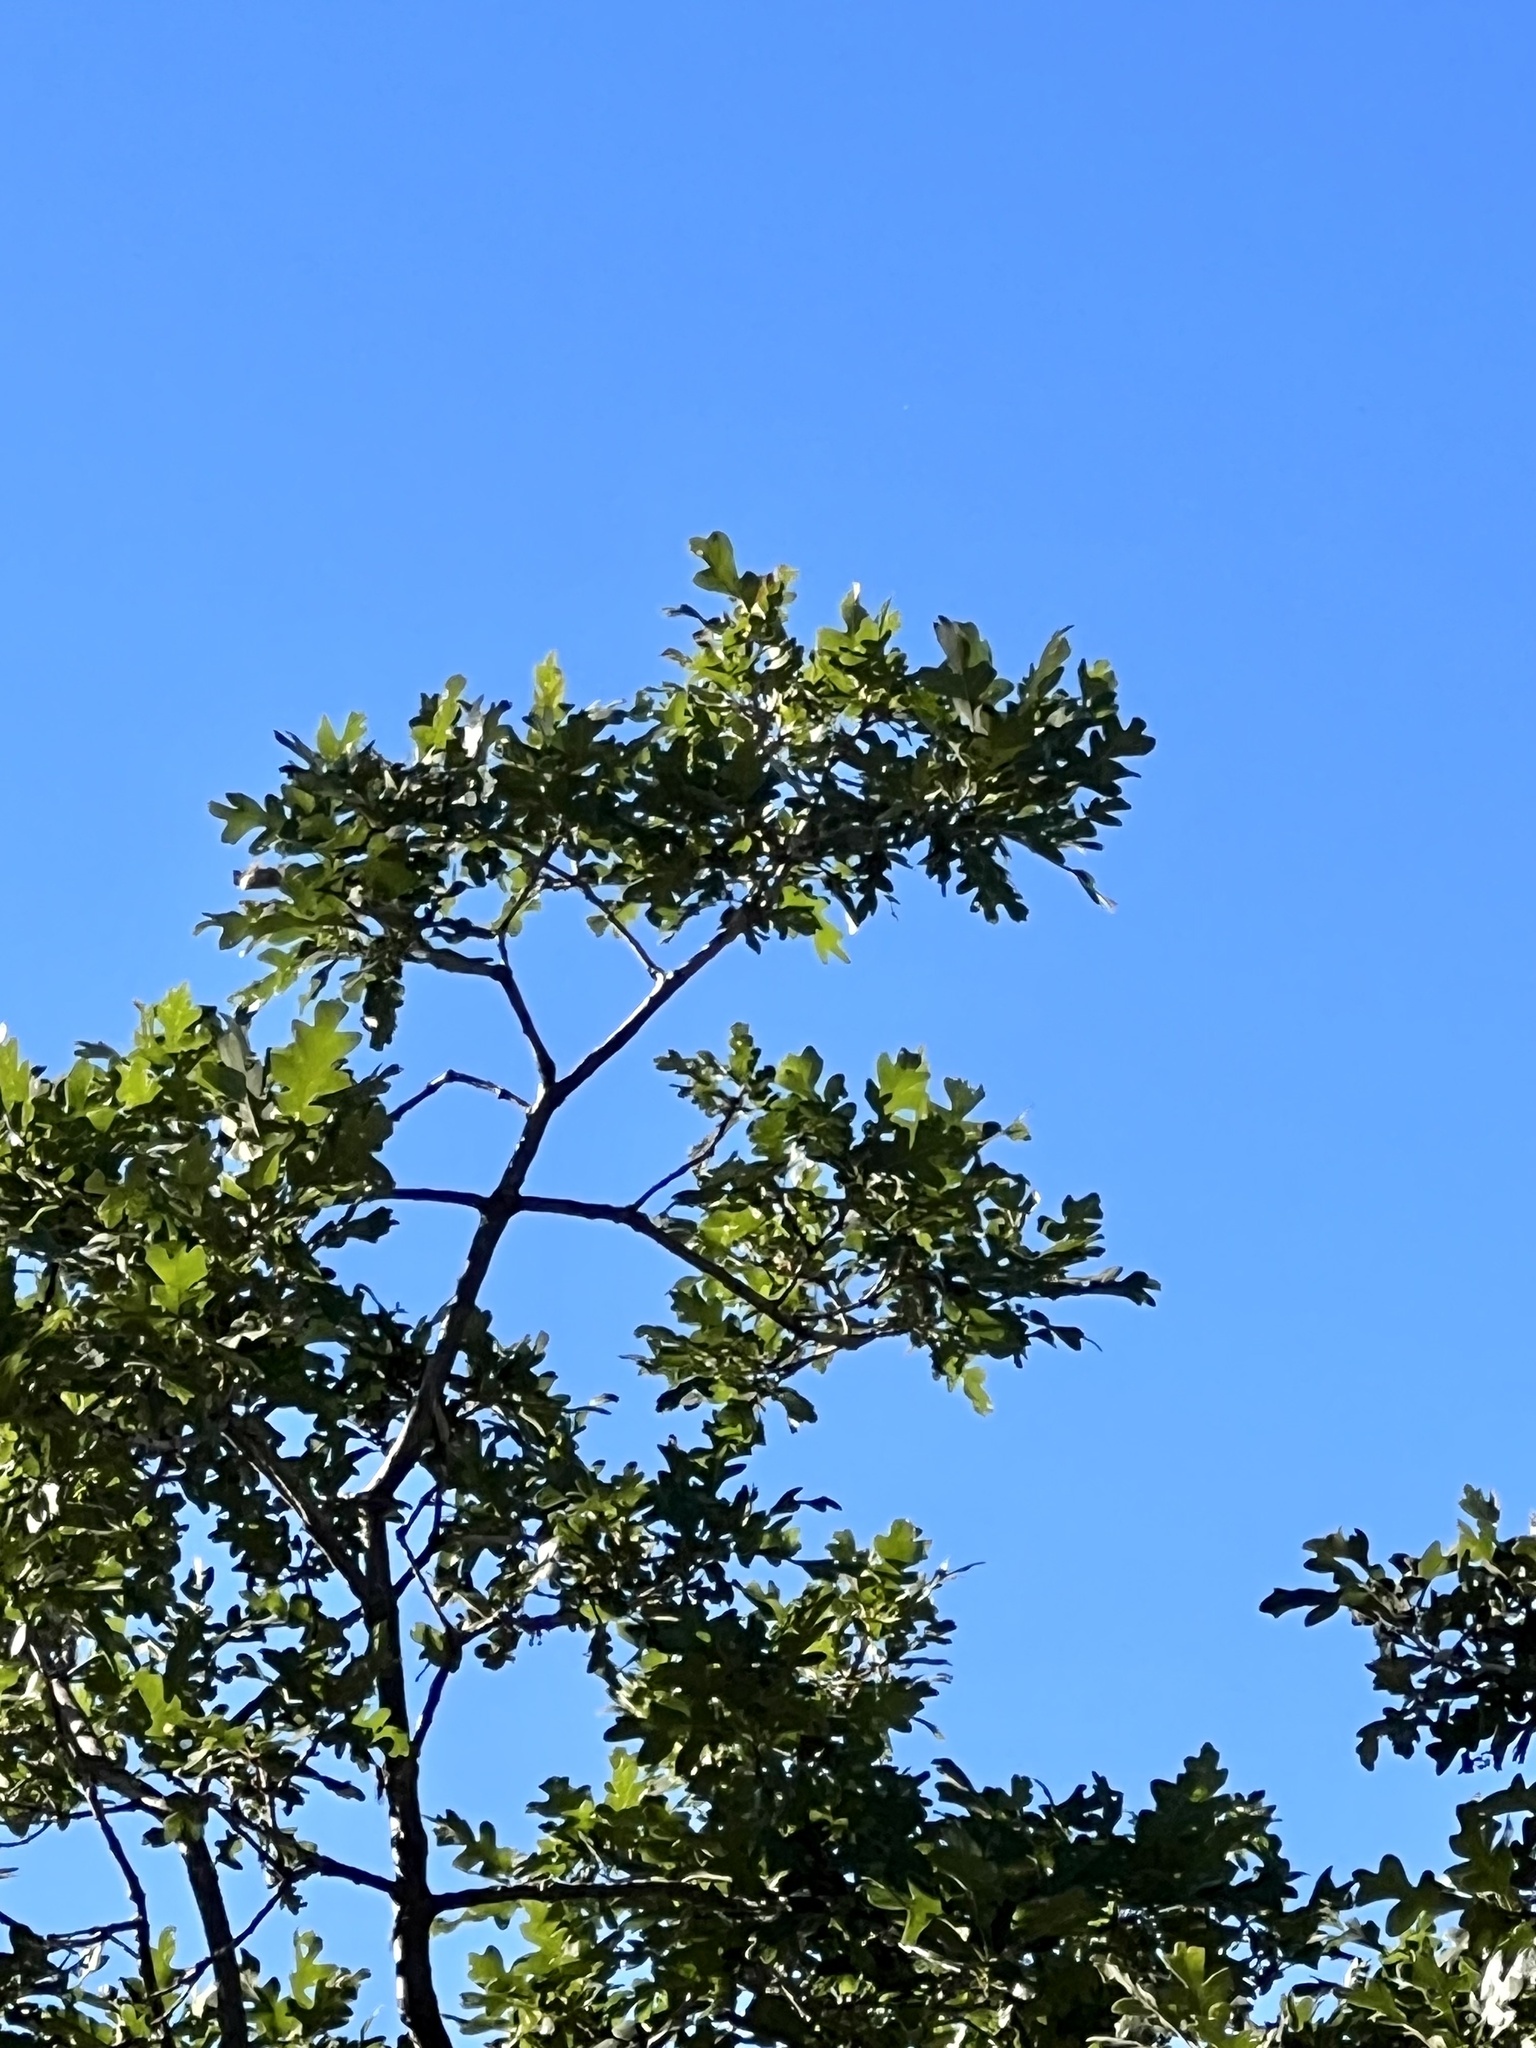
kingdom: Plantae
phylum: Tracheophyta
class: Magnoliopsida
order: Fagales
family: Fagaceae
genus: Quercus
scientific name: Quercus gambelii
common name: Gambel oak
